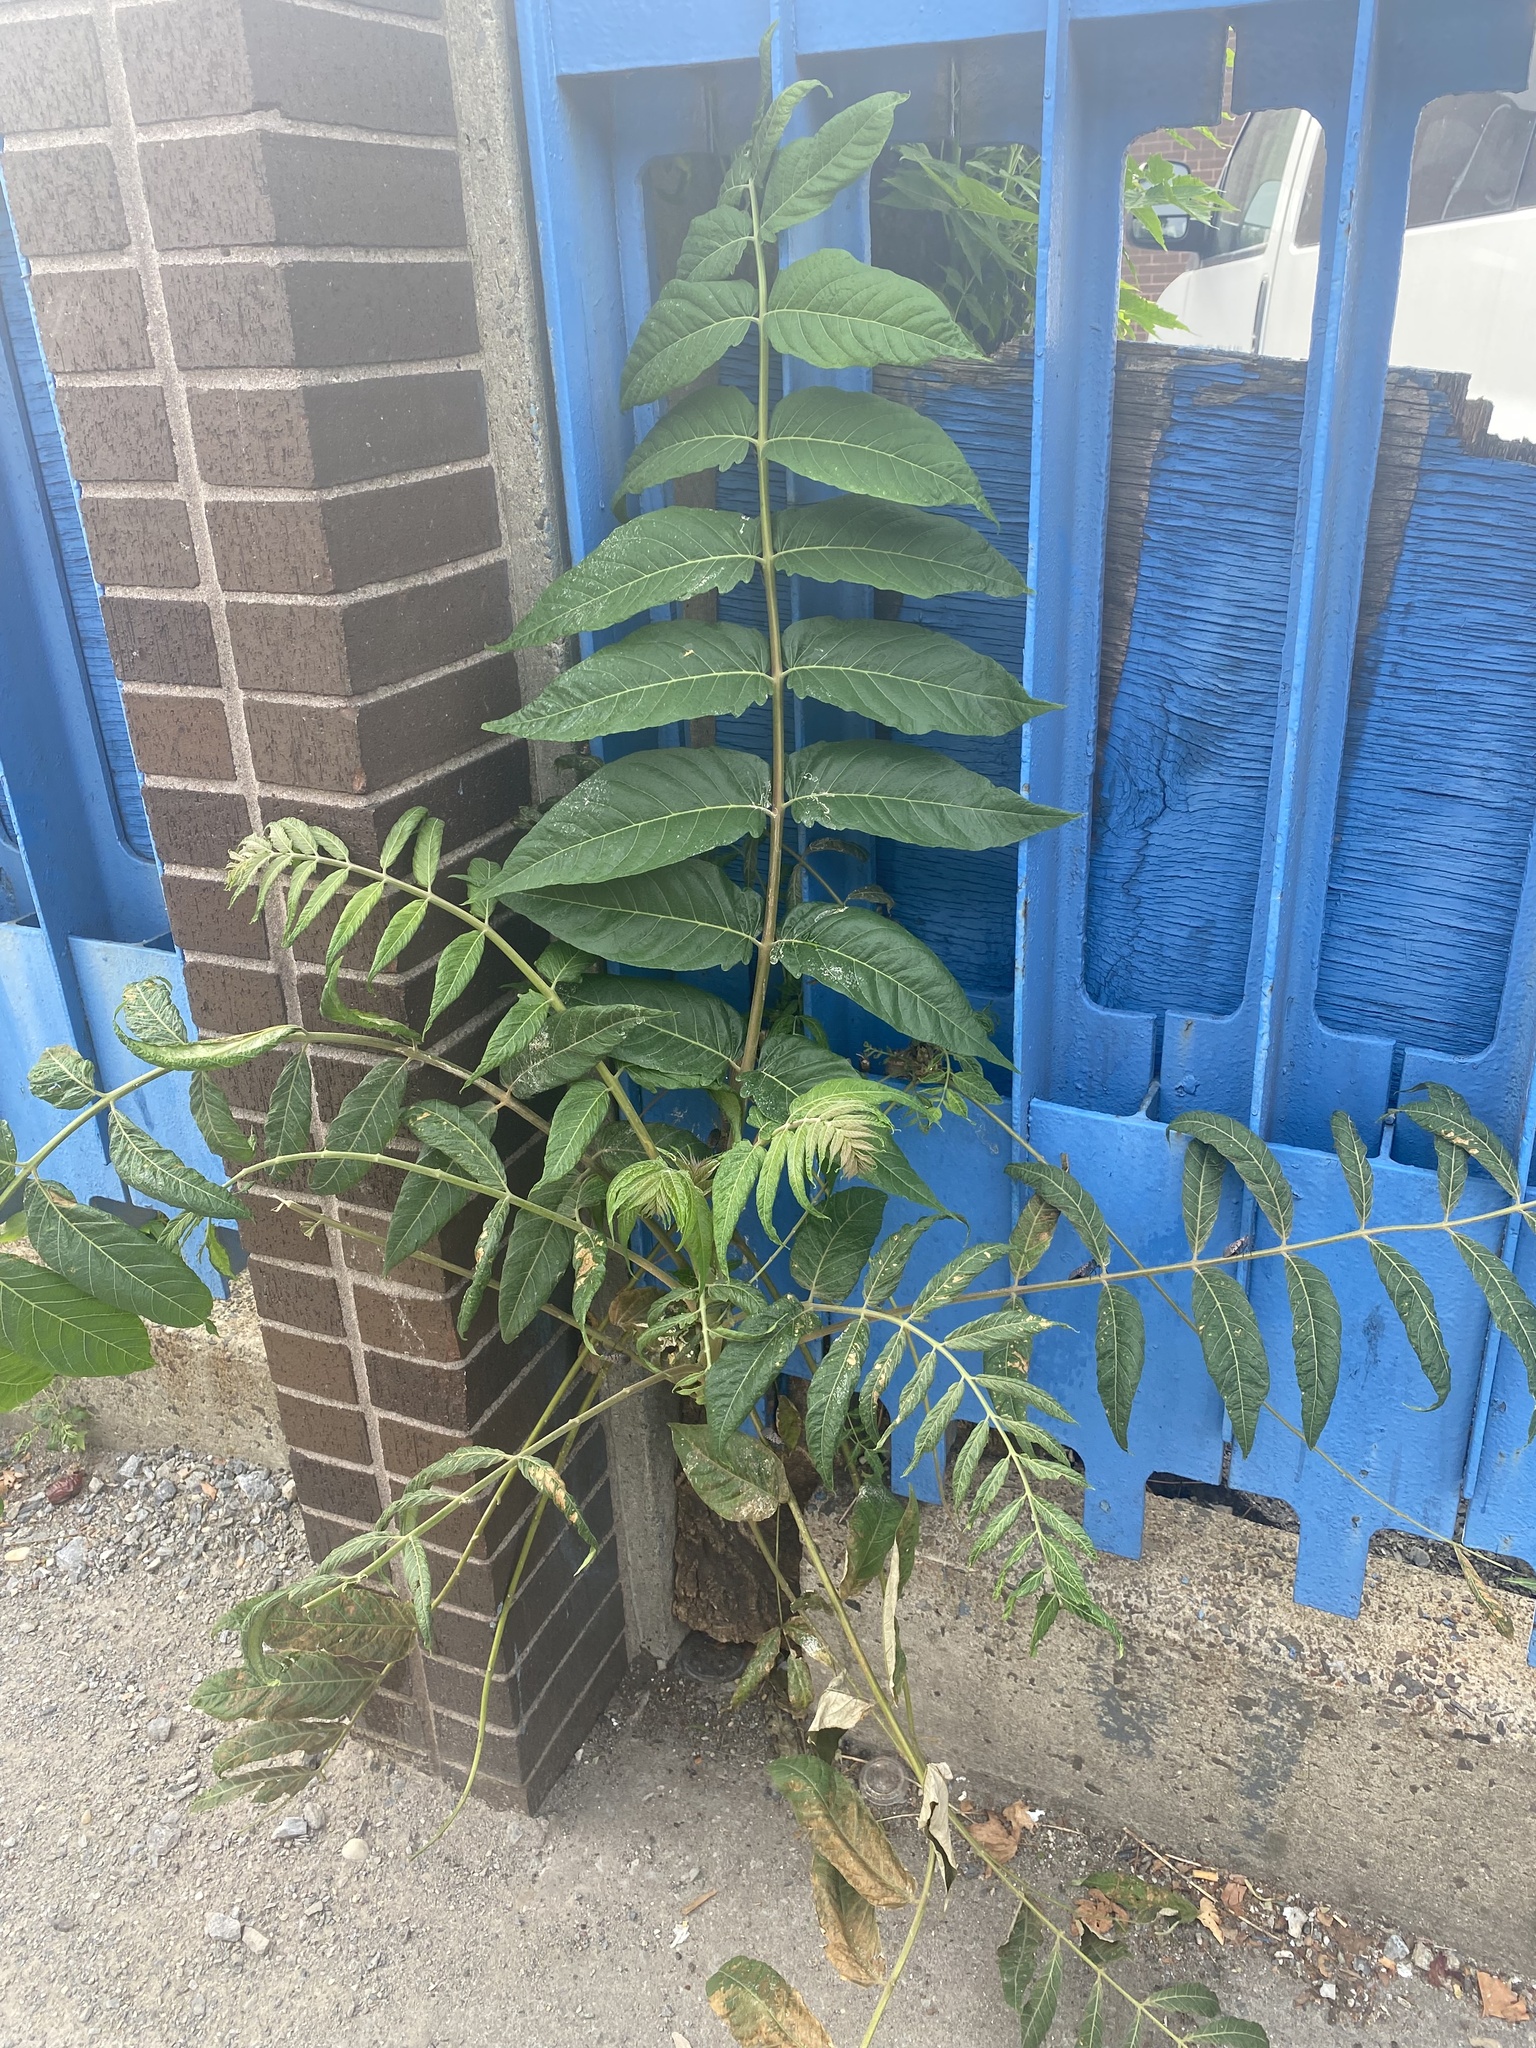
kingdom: Plantae
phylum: Tracheophyta
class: Magnoliopsida
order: Sapindales
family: Simaroubaceae
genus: Ailanthus
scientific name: Ailanthus altissima
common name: Tree-of-heaven
